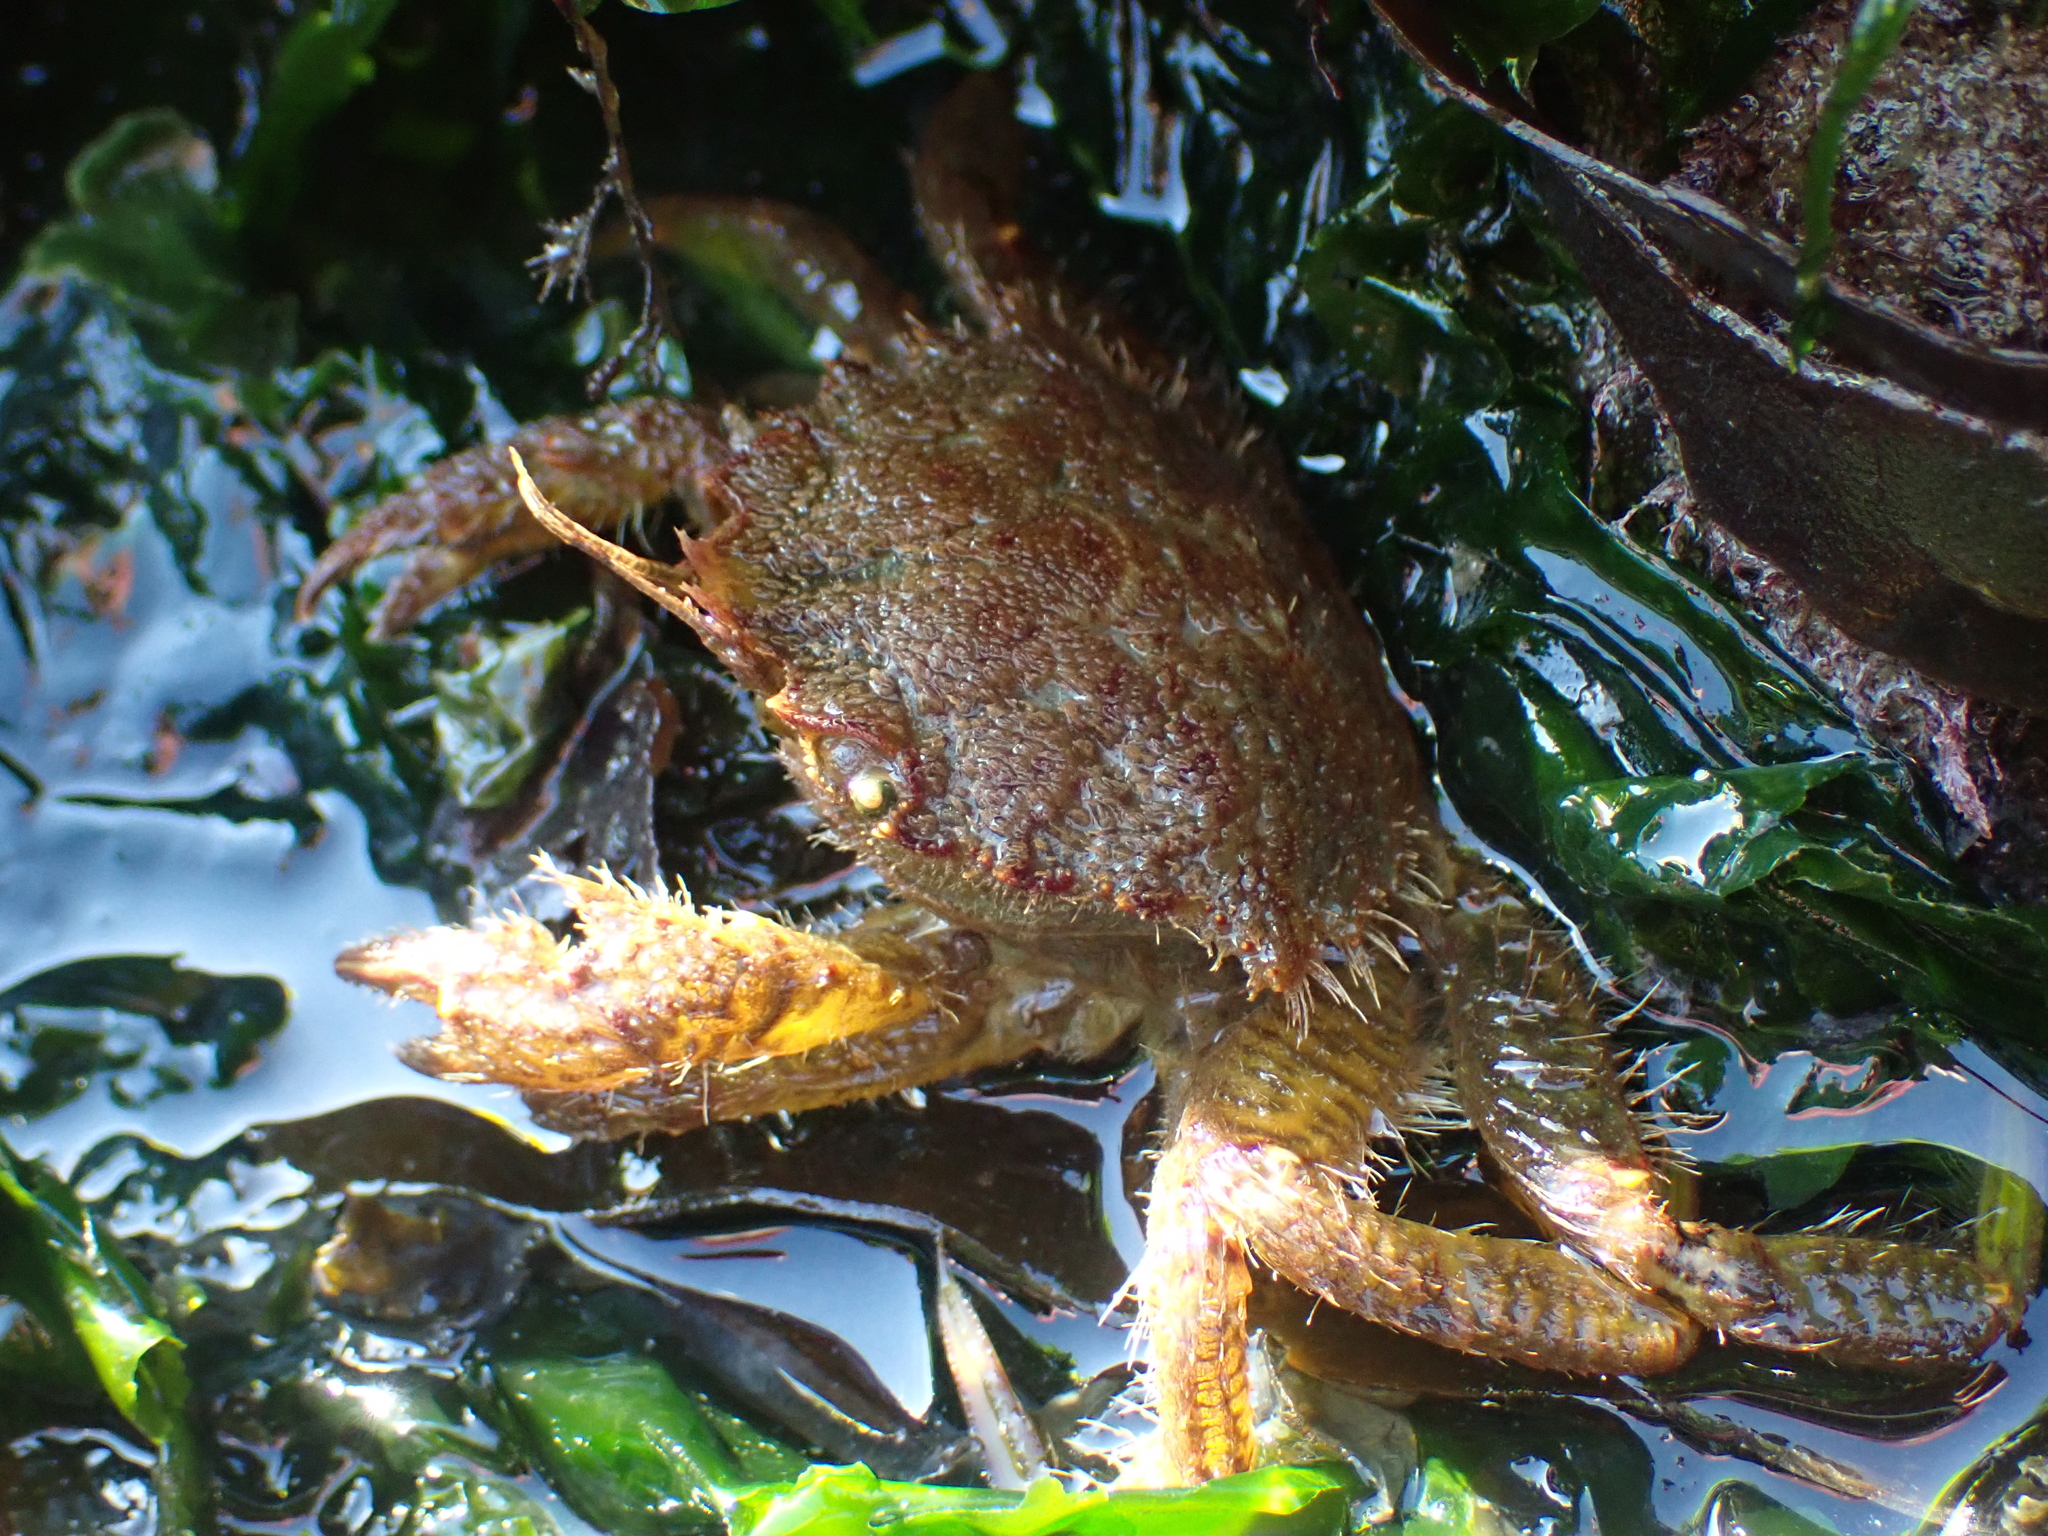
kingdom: Animalia
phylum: Arthropoda
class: Malacostraca
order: Decapoda
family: Cheiragonidae
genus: Telmessus
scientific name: Telmessus cheiragonus
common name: Helmet crab
